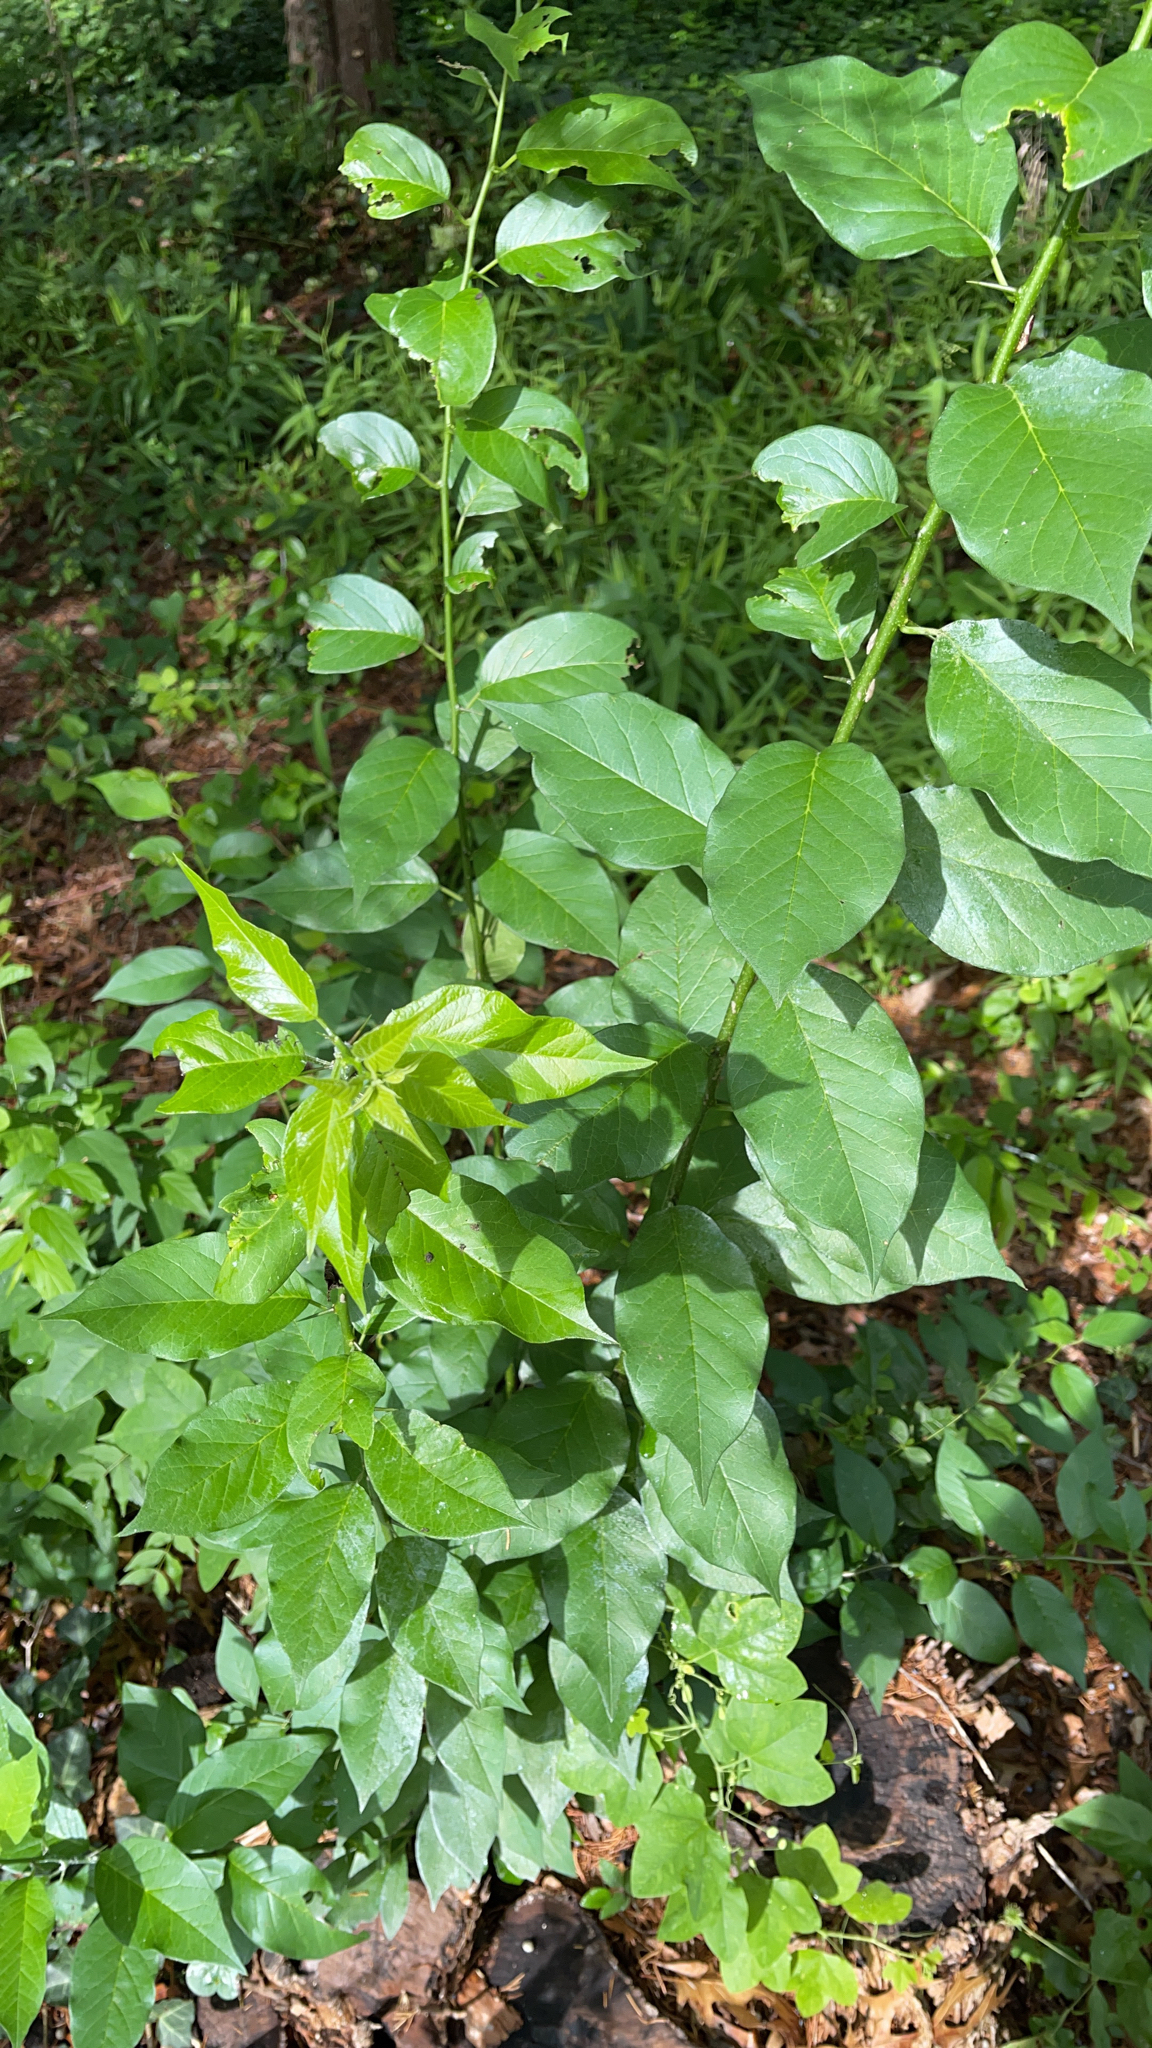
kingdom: Plantae
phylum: Tracheophyta
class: Magnoliopsida
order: Rosales
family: Moraceae
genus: Maclura
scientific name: Maclura pomifera
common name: Osage-orange
